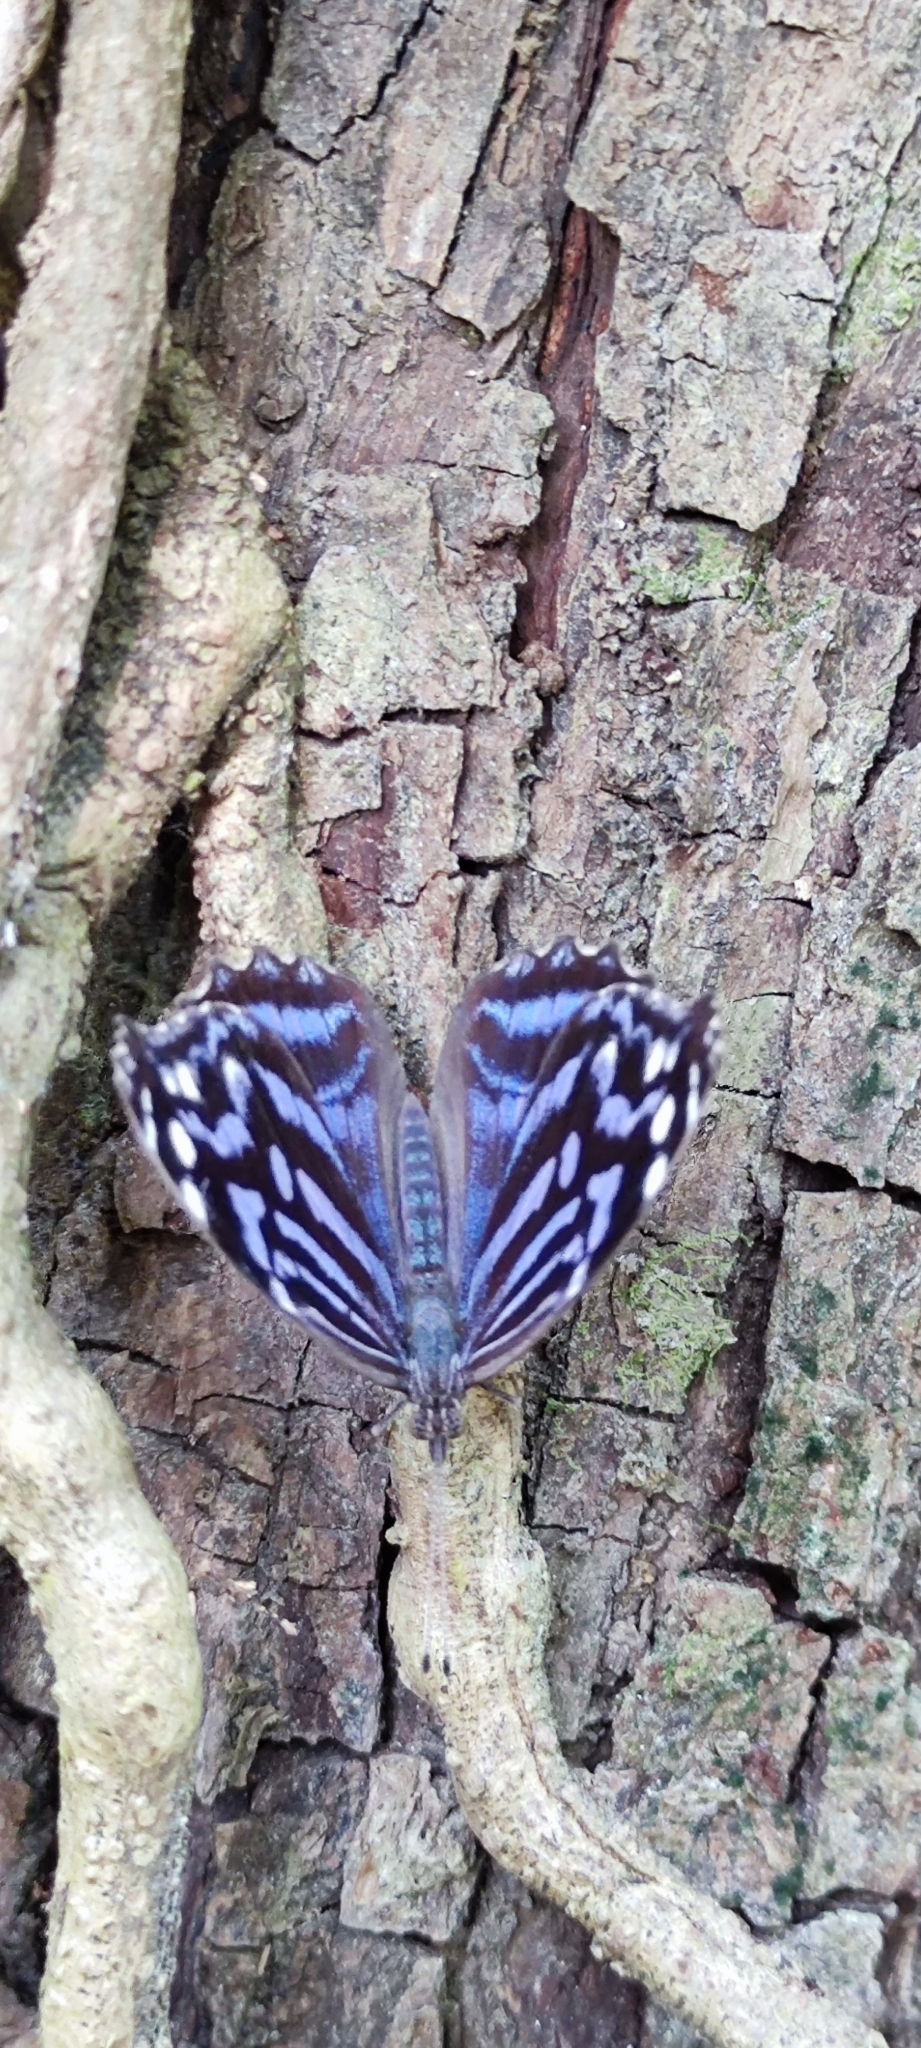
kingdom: Animalia
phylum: Arthropoda
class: Insecta
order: Lepidoptera
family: Nymphalidae
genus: Myscelia
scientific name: Myscelia ethusa
